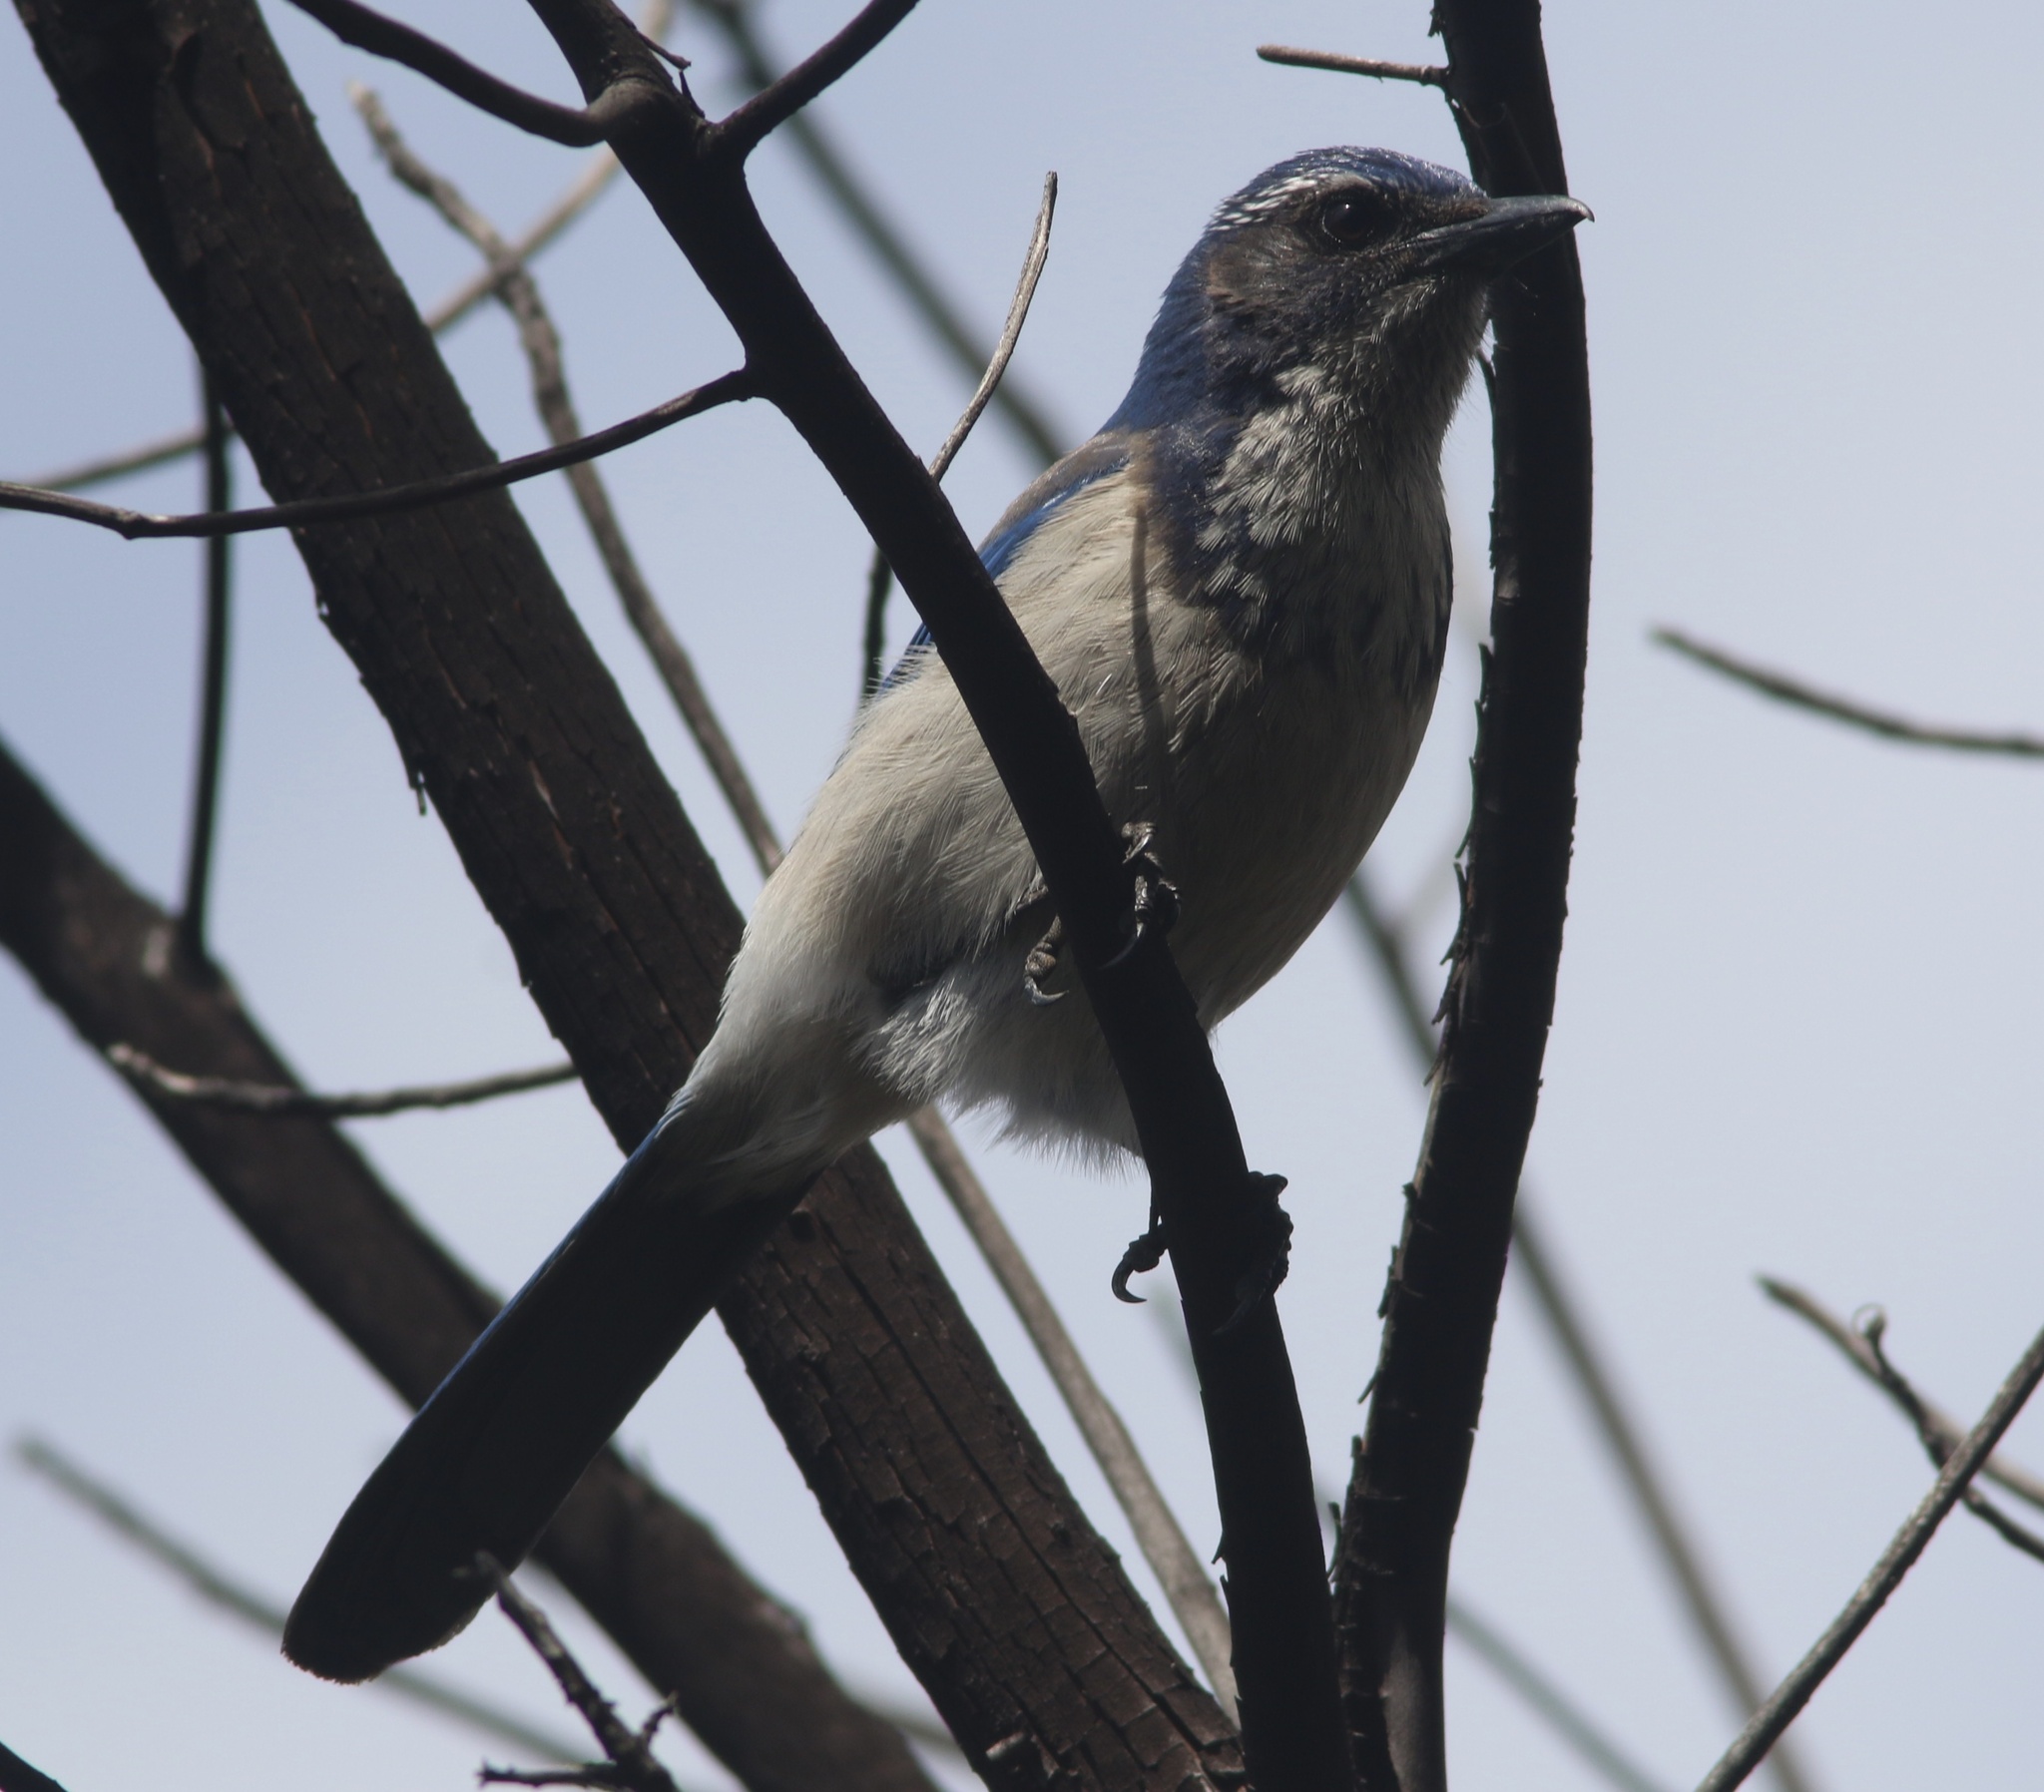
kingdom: Animalia
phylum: Chordata
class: Aves
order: Passeriformes
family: Corvidae
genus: Aphelocoma
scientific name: Aphelocoma californica
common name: California scrub-jay
